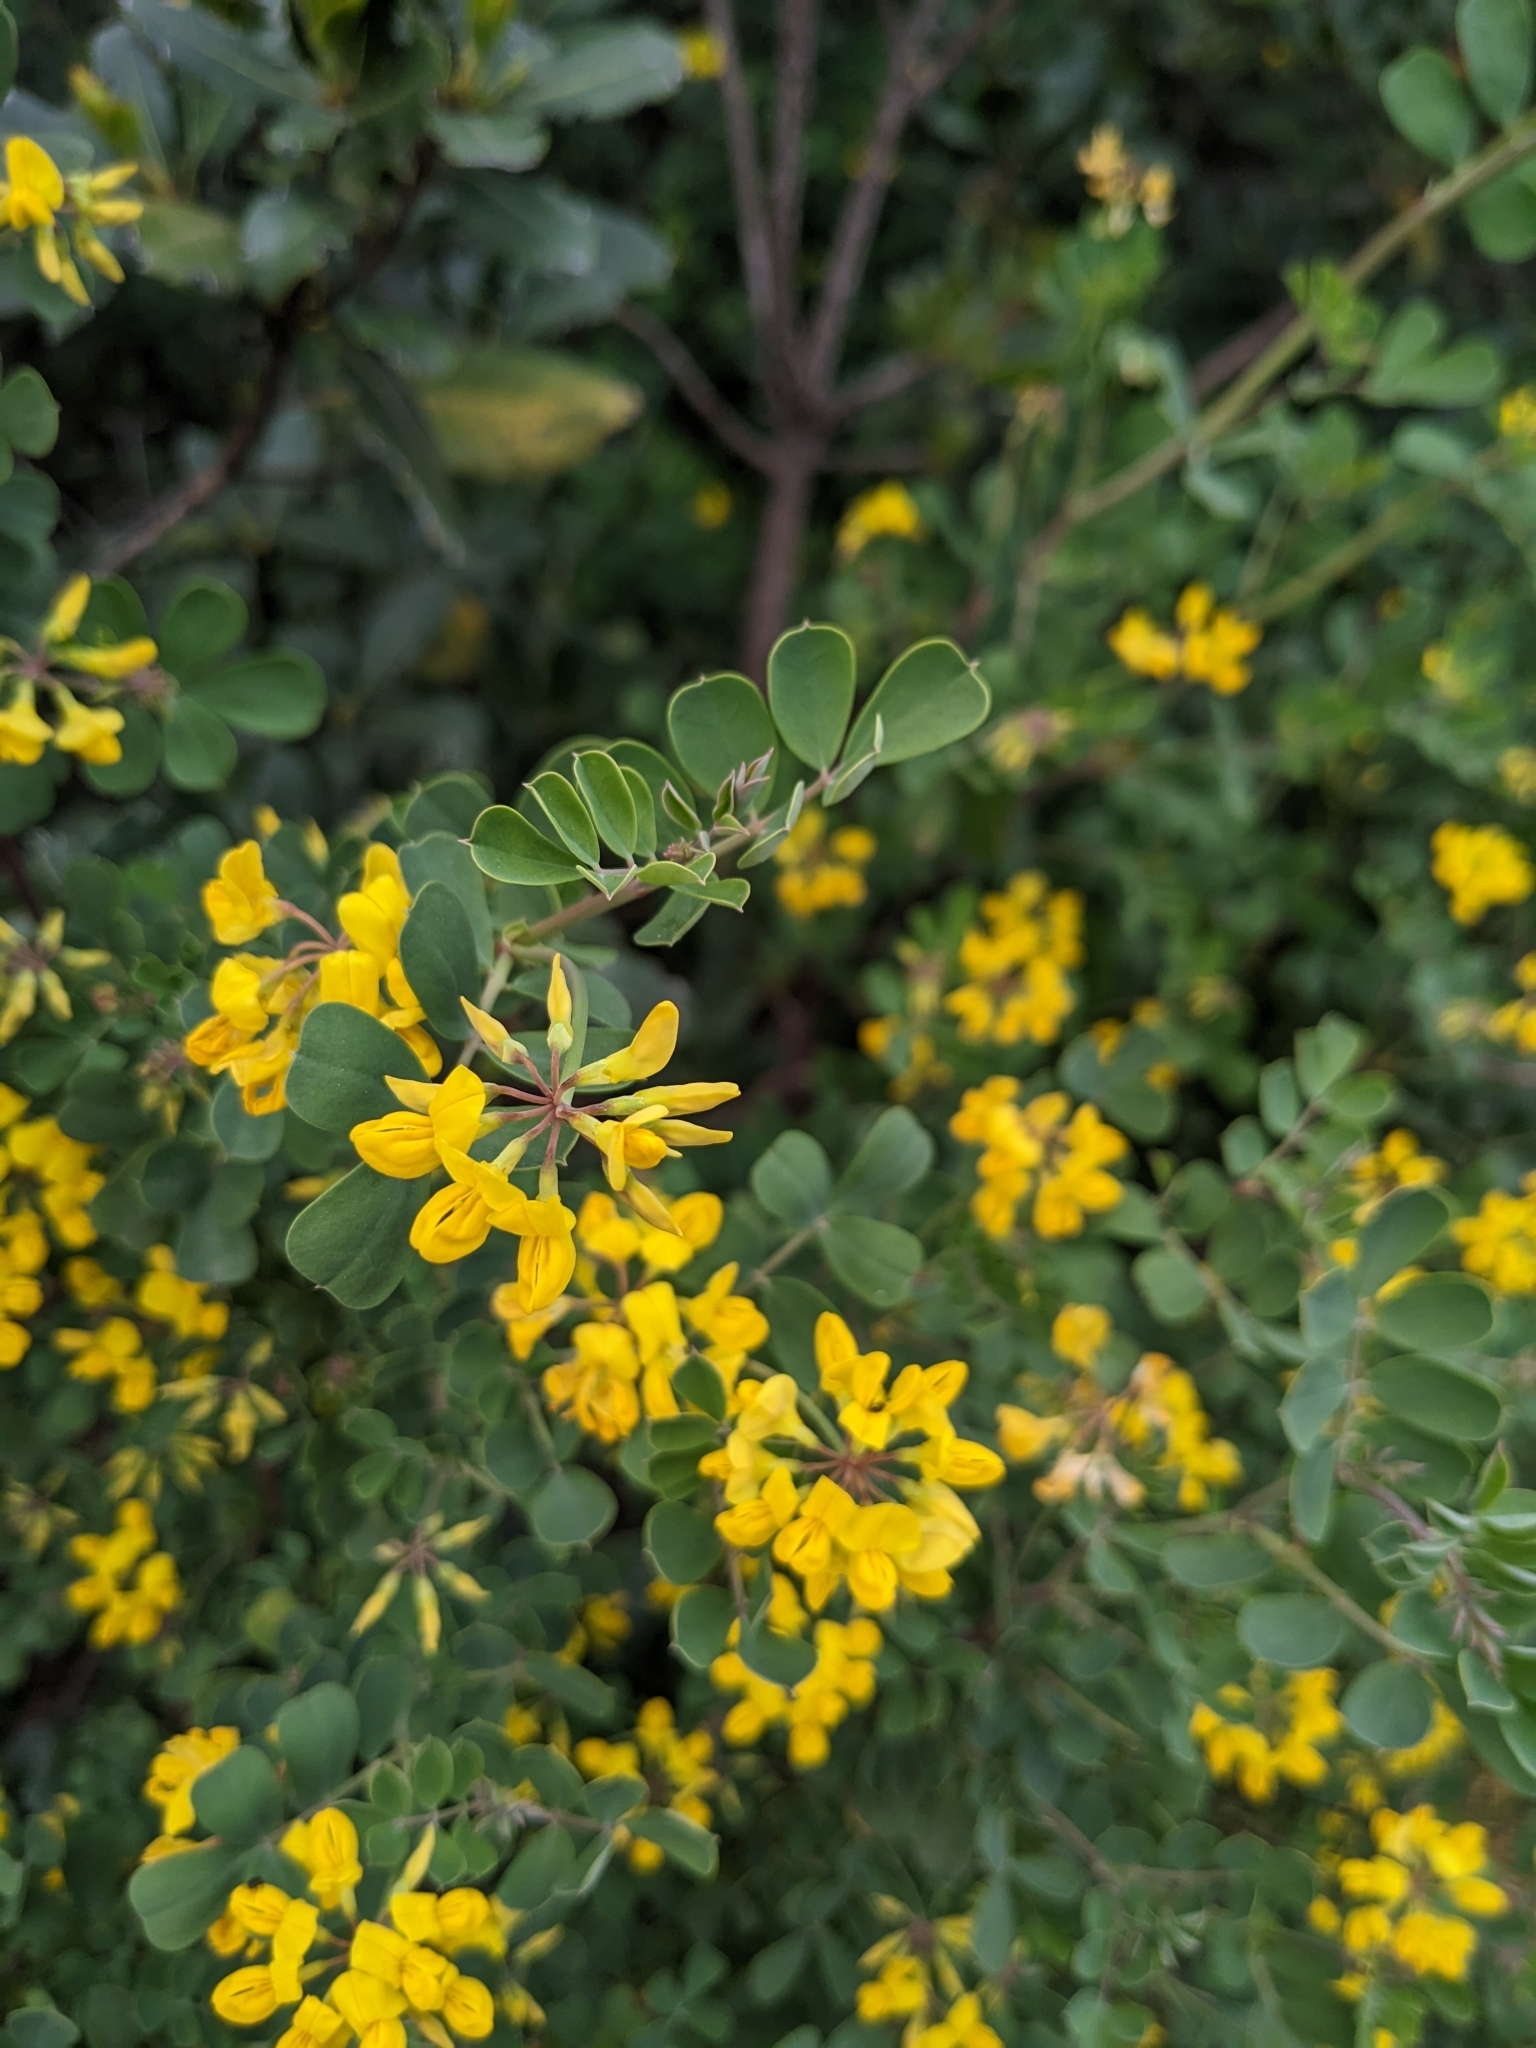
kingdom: Plantae
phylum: Tracheophyta
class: Magnoliopsida
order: Fabales
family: Fabaceae
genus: Coronilla
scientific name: Coronilla valentina
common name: Shrubby scorpion-vetch
